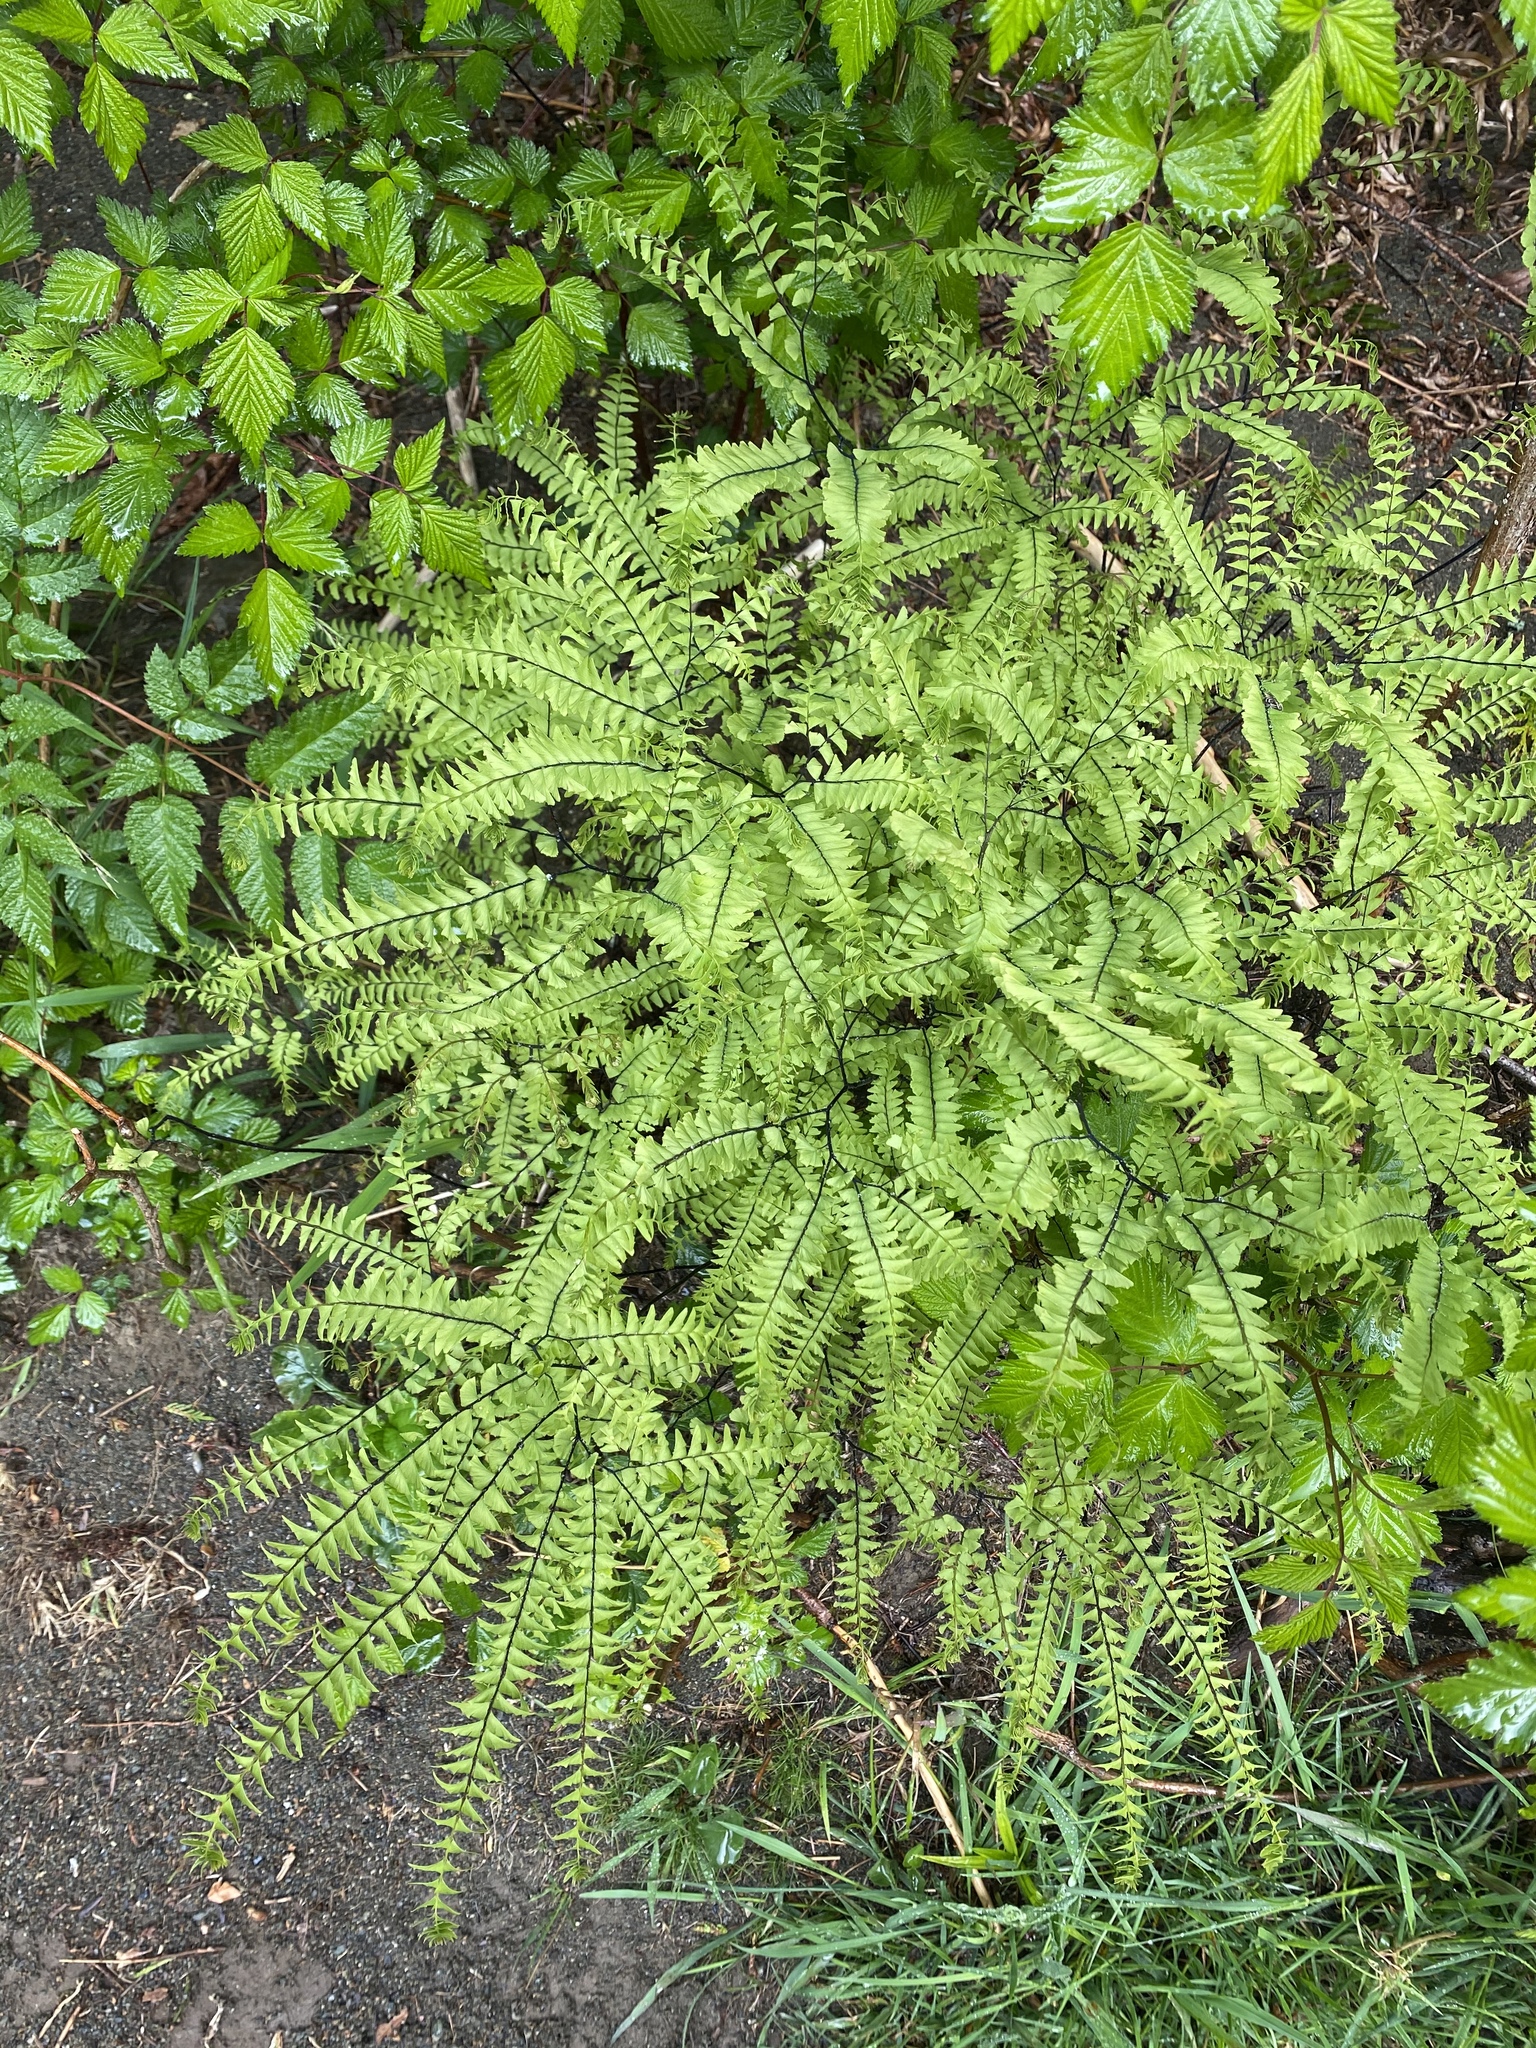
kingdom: Plantae
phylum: Tracheophyta
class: Polypodiopsida
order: Polypodiales
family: Pteridaceae
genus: Adiantum
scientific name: Adiantum aleuticum
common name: Aleutian maidenhair fern
